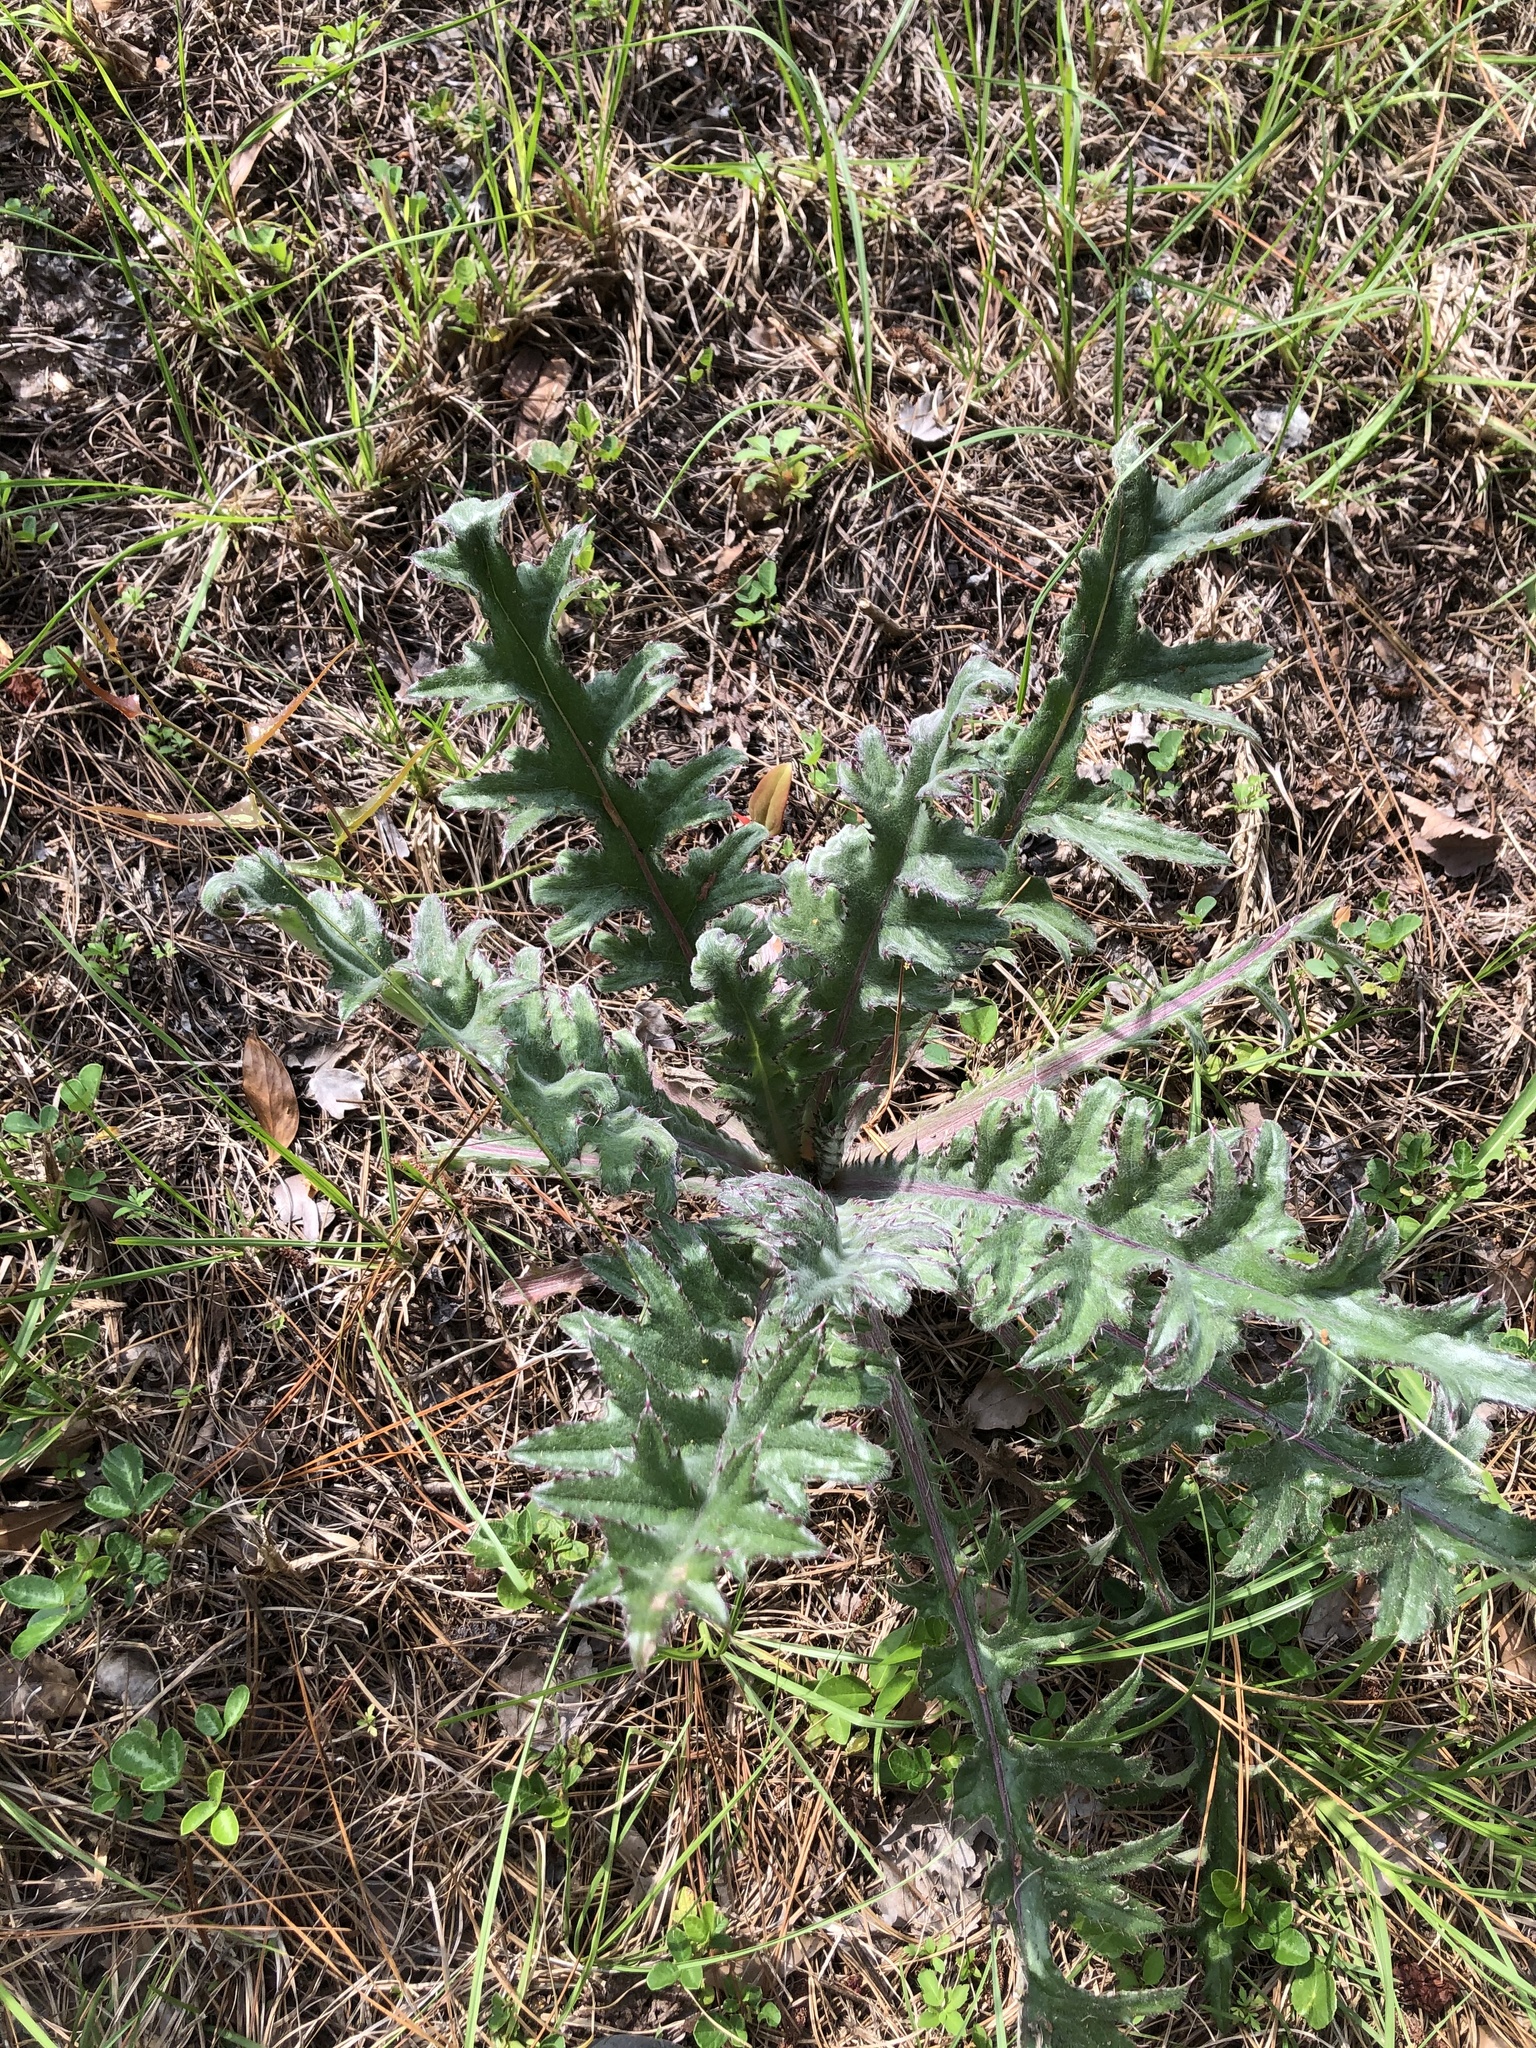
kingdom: Plantae
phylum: Tracheophyta
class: Magnoliopsida
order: Asterales
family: Asteraceae
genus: Cirsium
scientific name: Cirsium horridulum
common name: Bristly thistle
